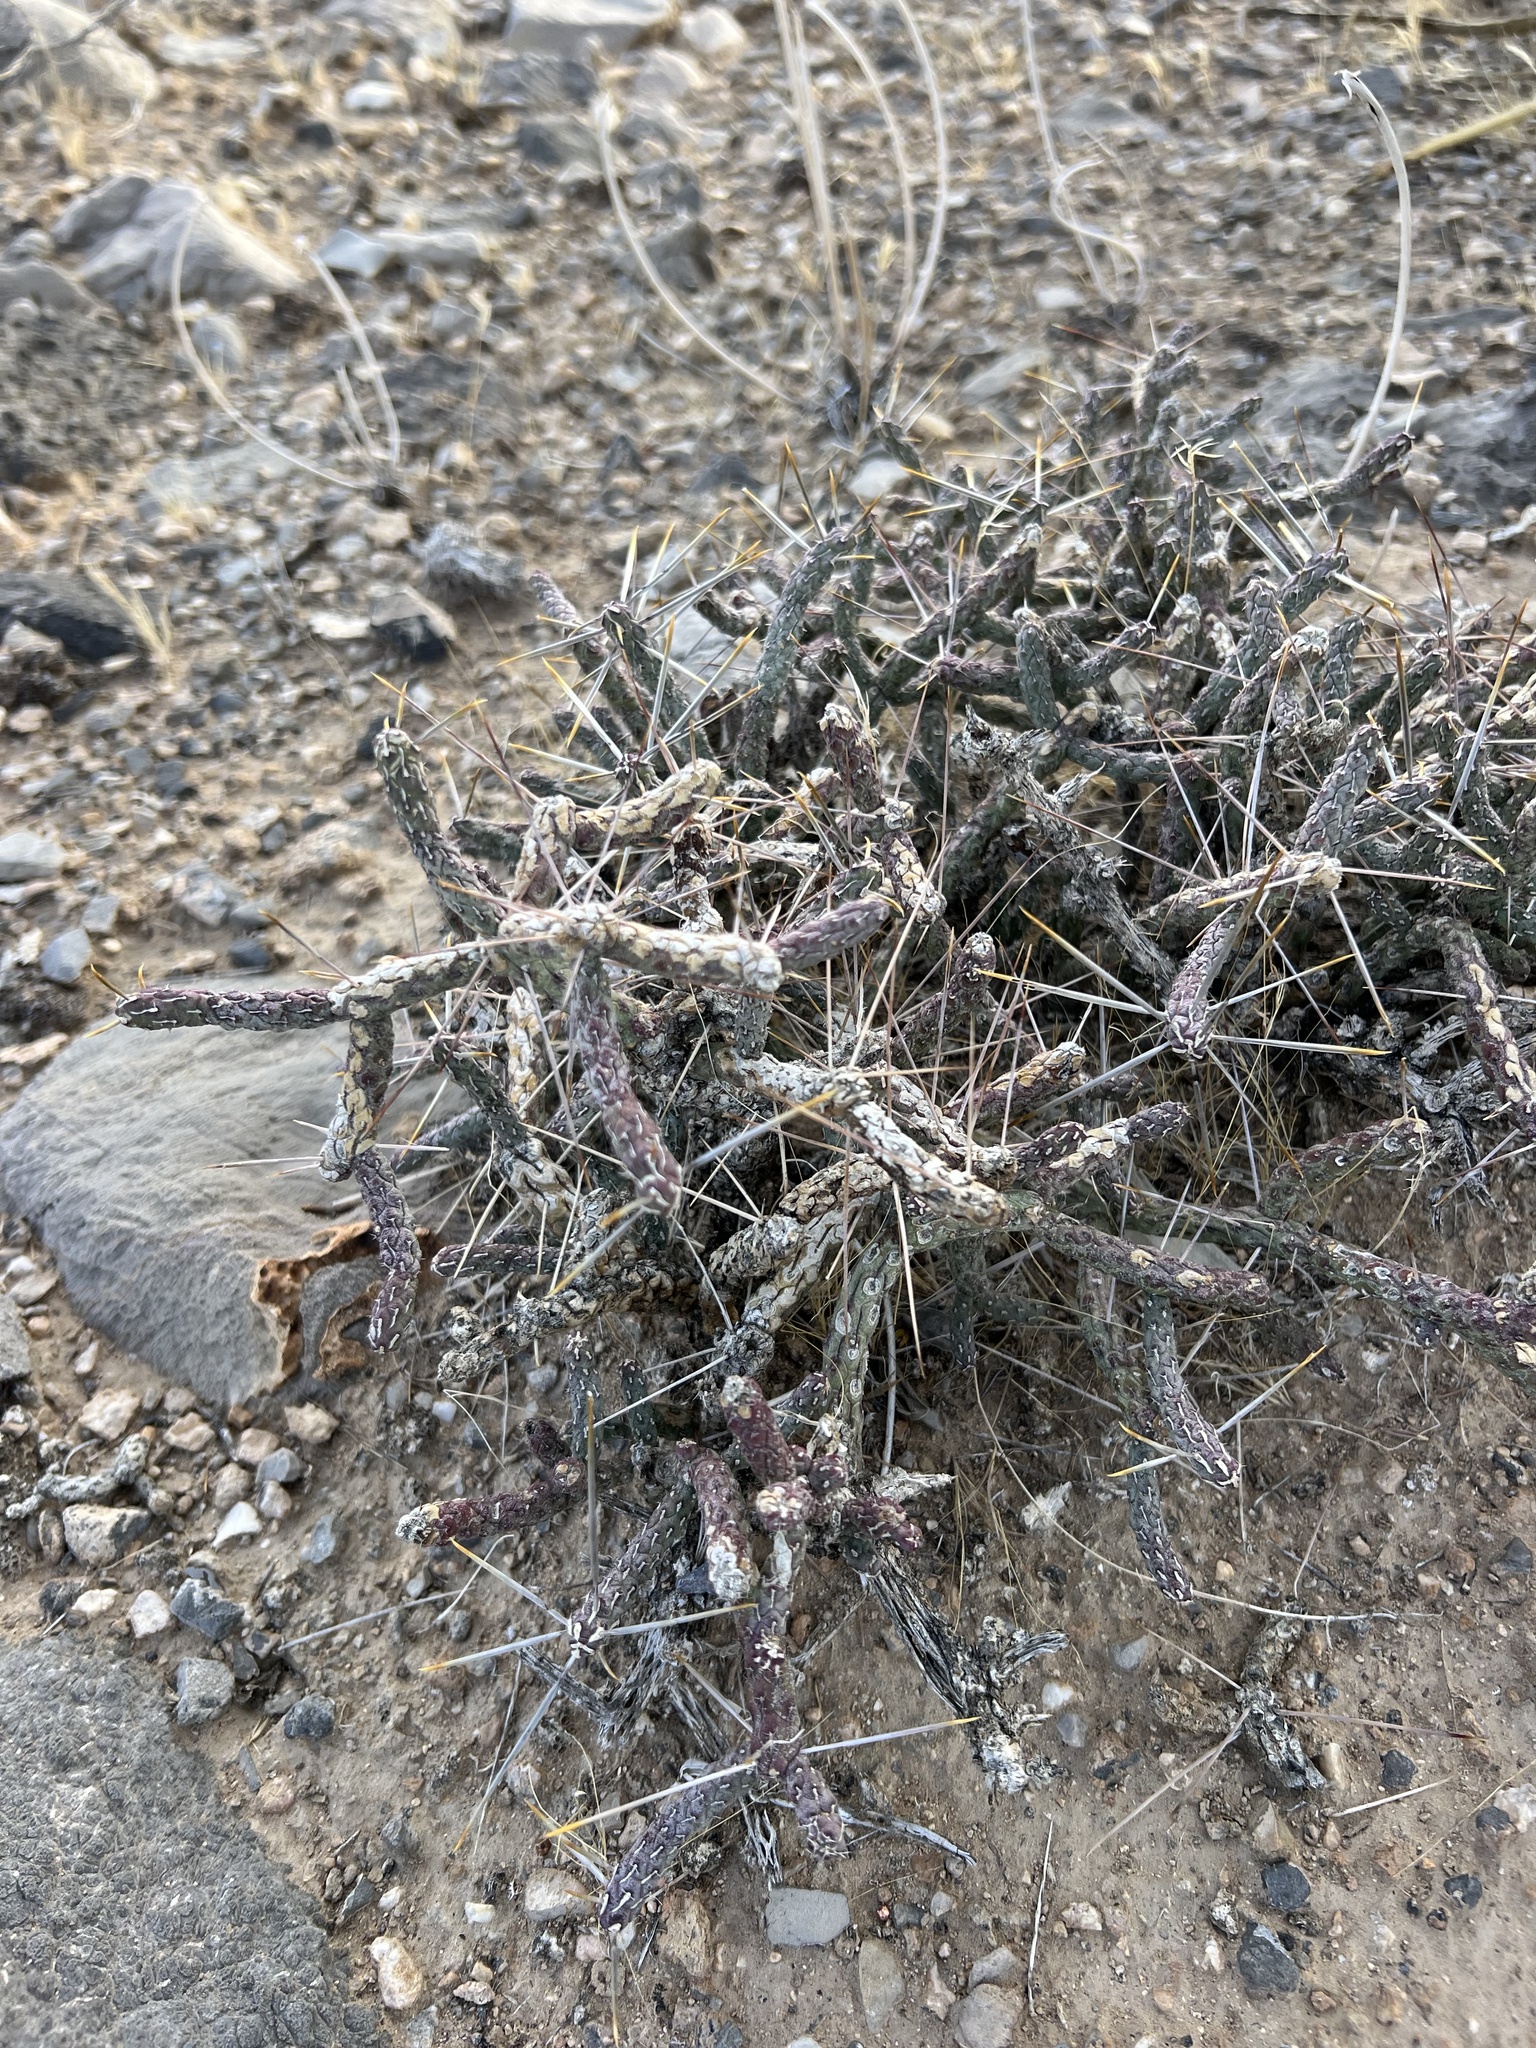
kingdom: Plantae
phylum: Tracheophyta
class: Magnoliopsida
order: Caryophyllales
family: Cactaceae
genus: Cylindropuntia
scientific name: Cylindropuntia ramosissima
